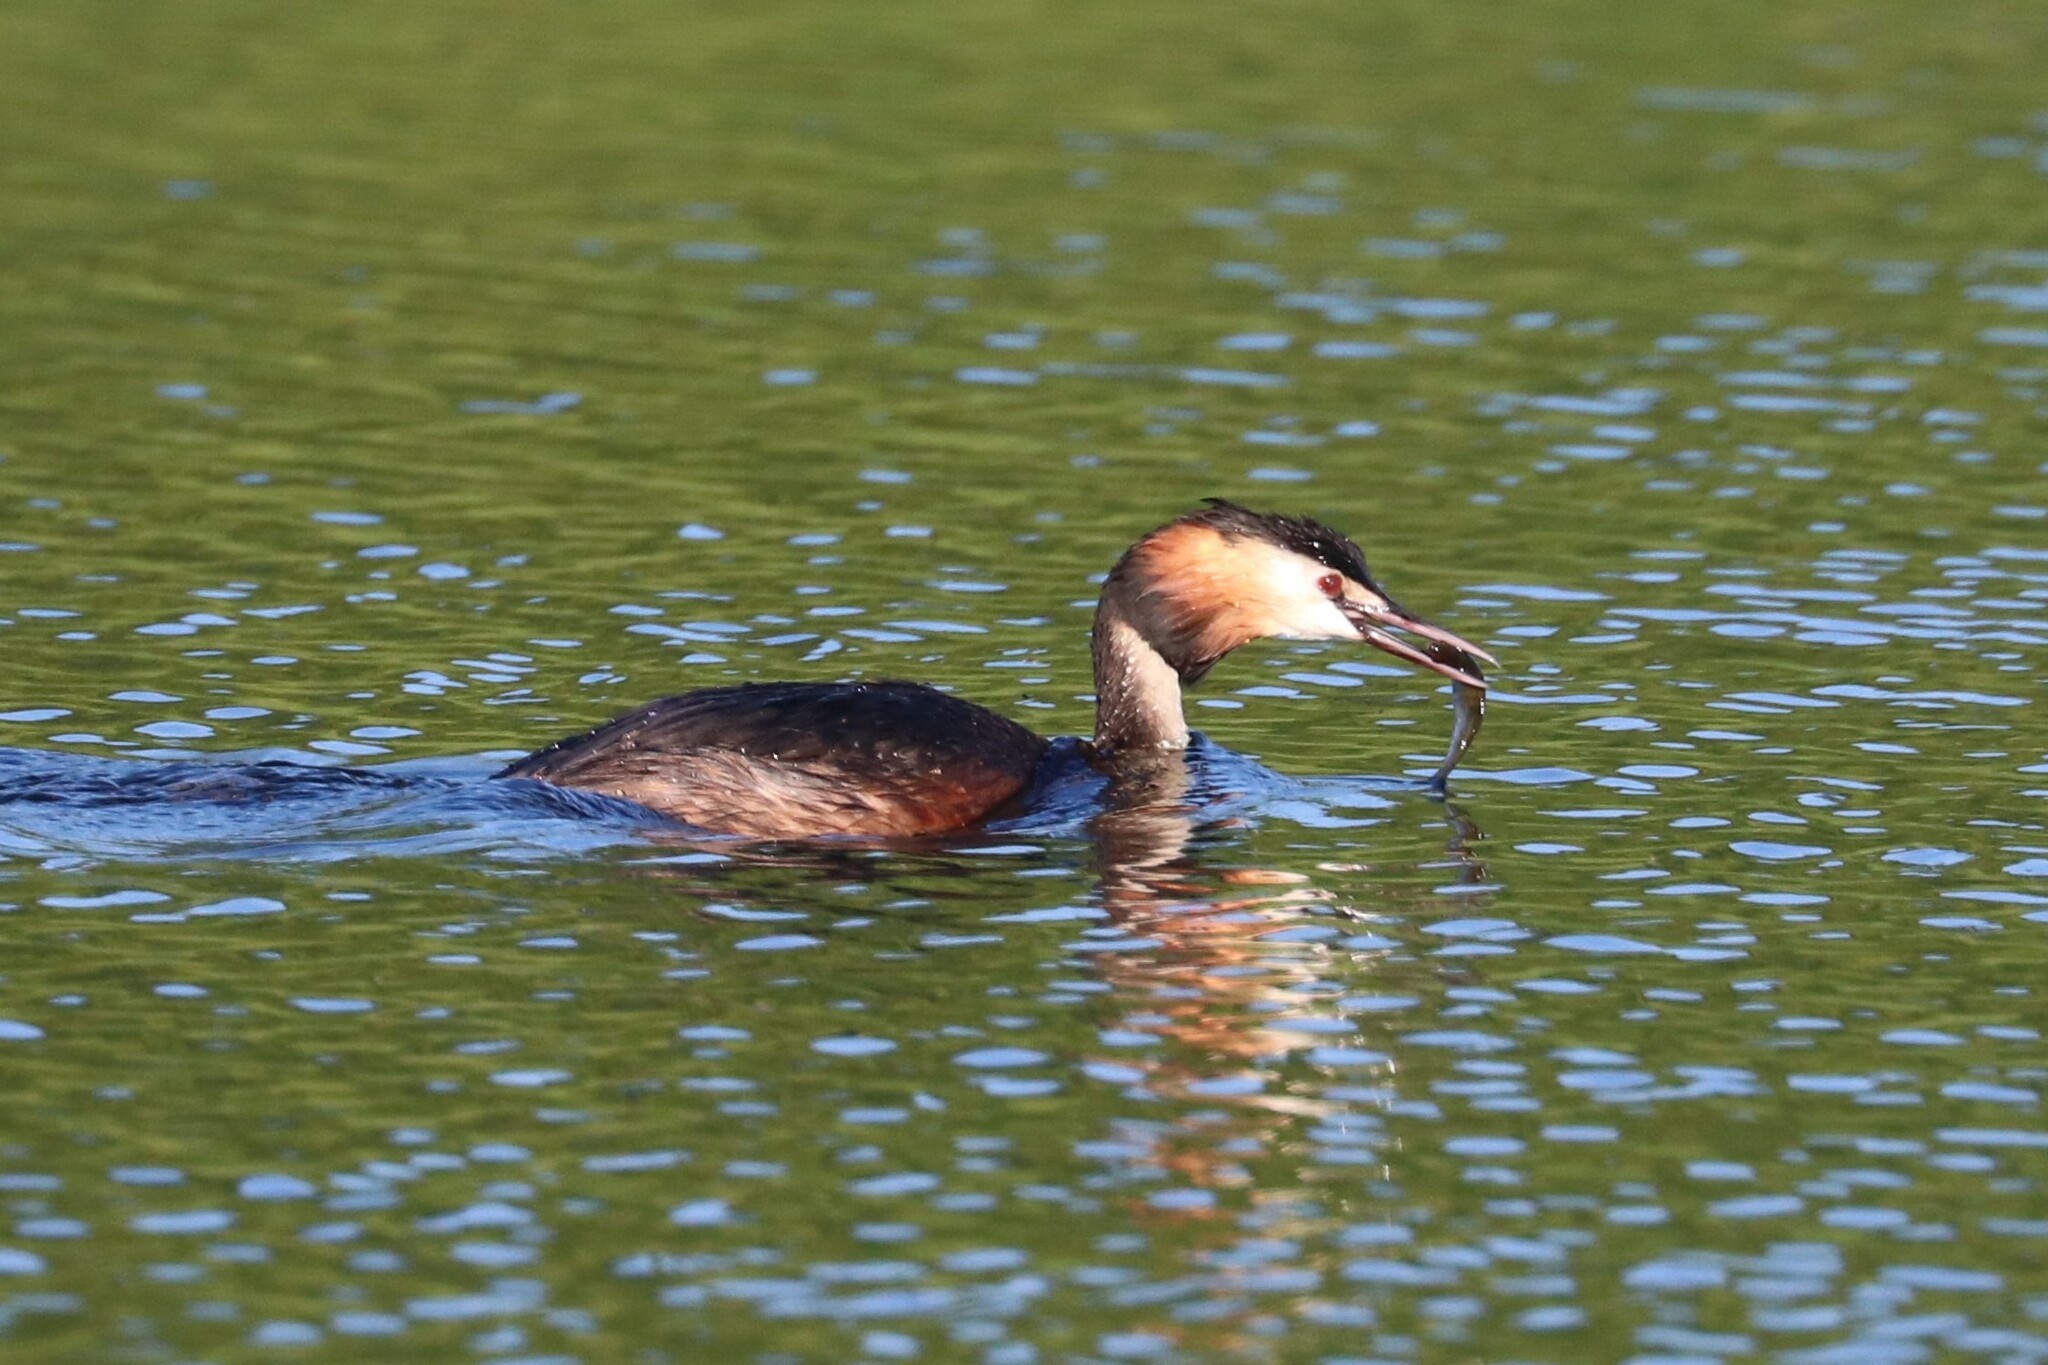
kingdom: Animalia
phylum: Chordata
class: Aves
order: Podicipediformes
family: Podicipedidae
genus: Podiceps
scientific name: Podiceps cristatus
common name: Great crested grebe
